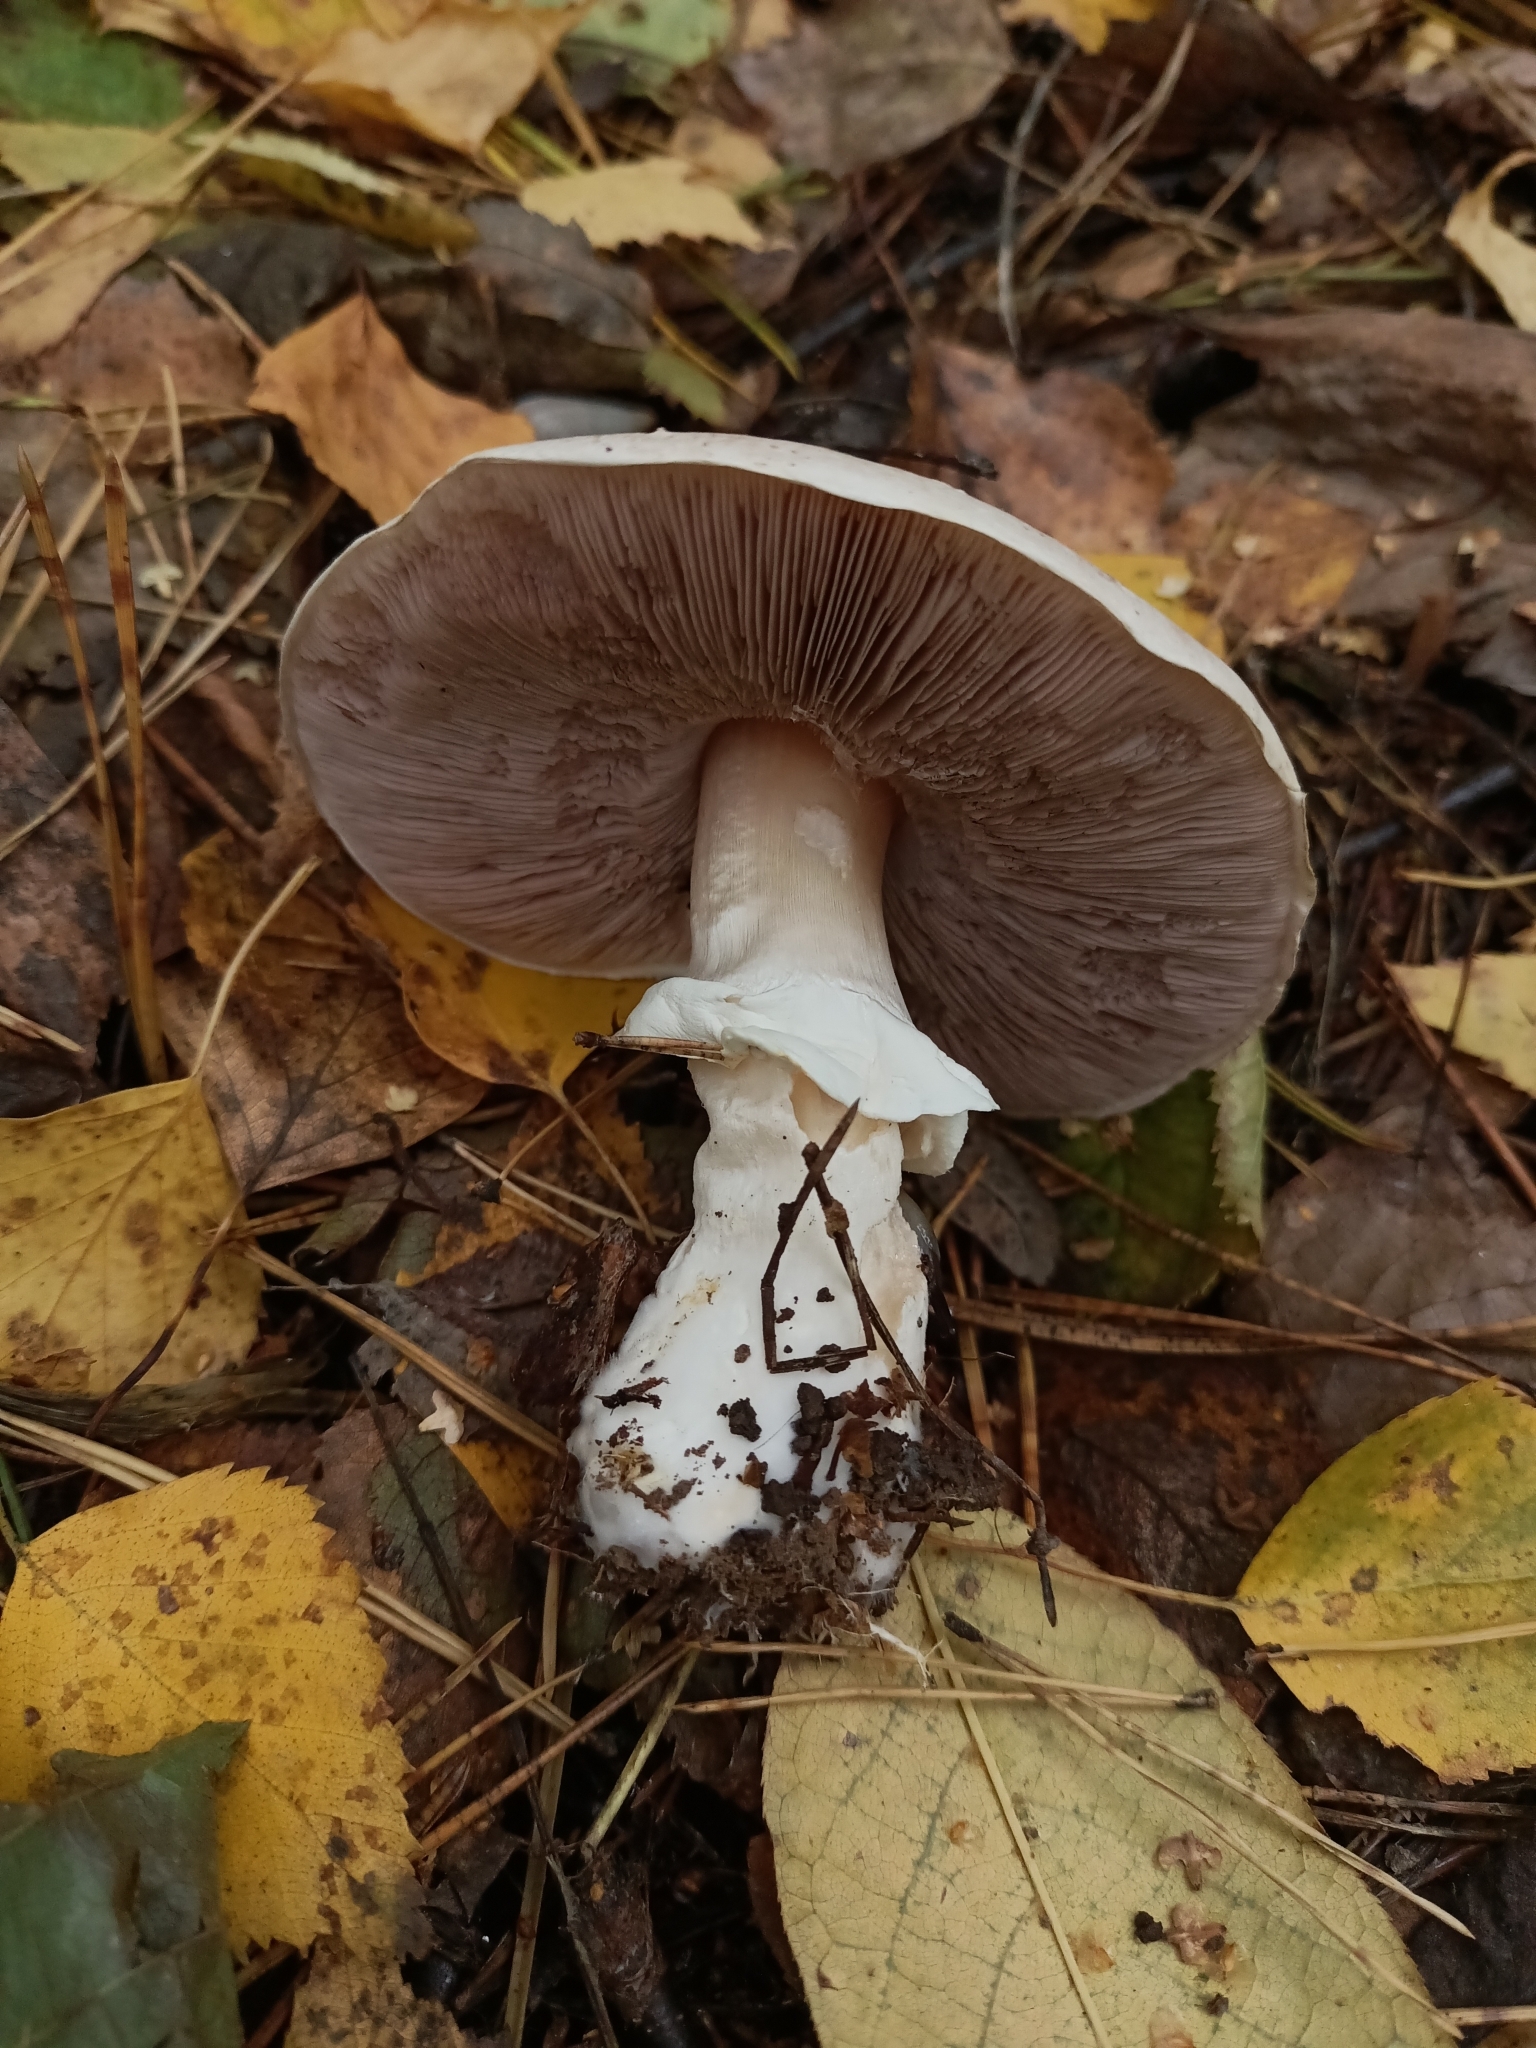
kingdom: Fungi
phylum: Basidiomycota
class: Agaricomycetes
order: Agaricales
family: Agaricaceae
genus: Agaricus
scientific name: Agaricus sylvicola
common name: Wood mushroom
